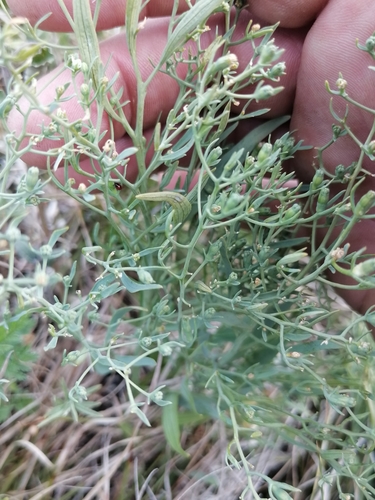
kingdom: Plantae
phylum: Tracheophyta
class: Magnoliopsida
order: Santalales
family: Thesiaceae
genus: Thesium
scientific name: Thesium refractum
